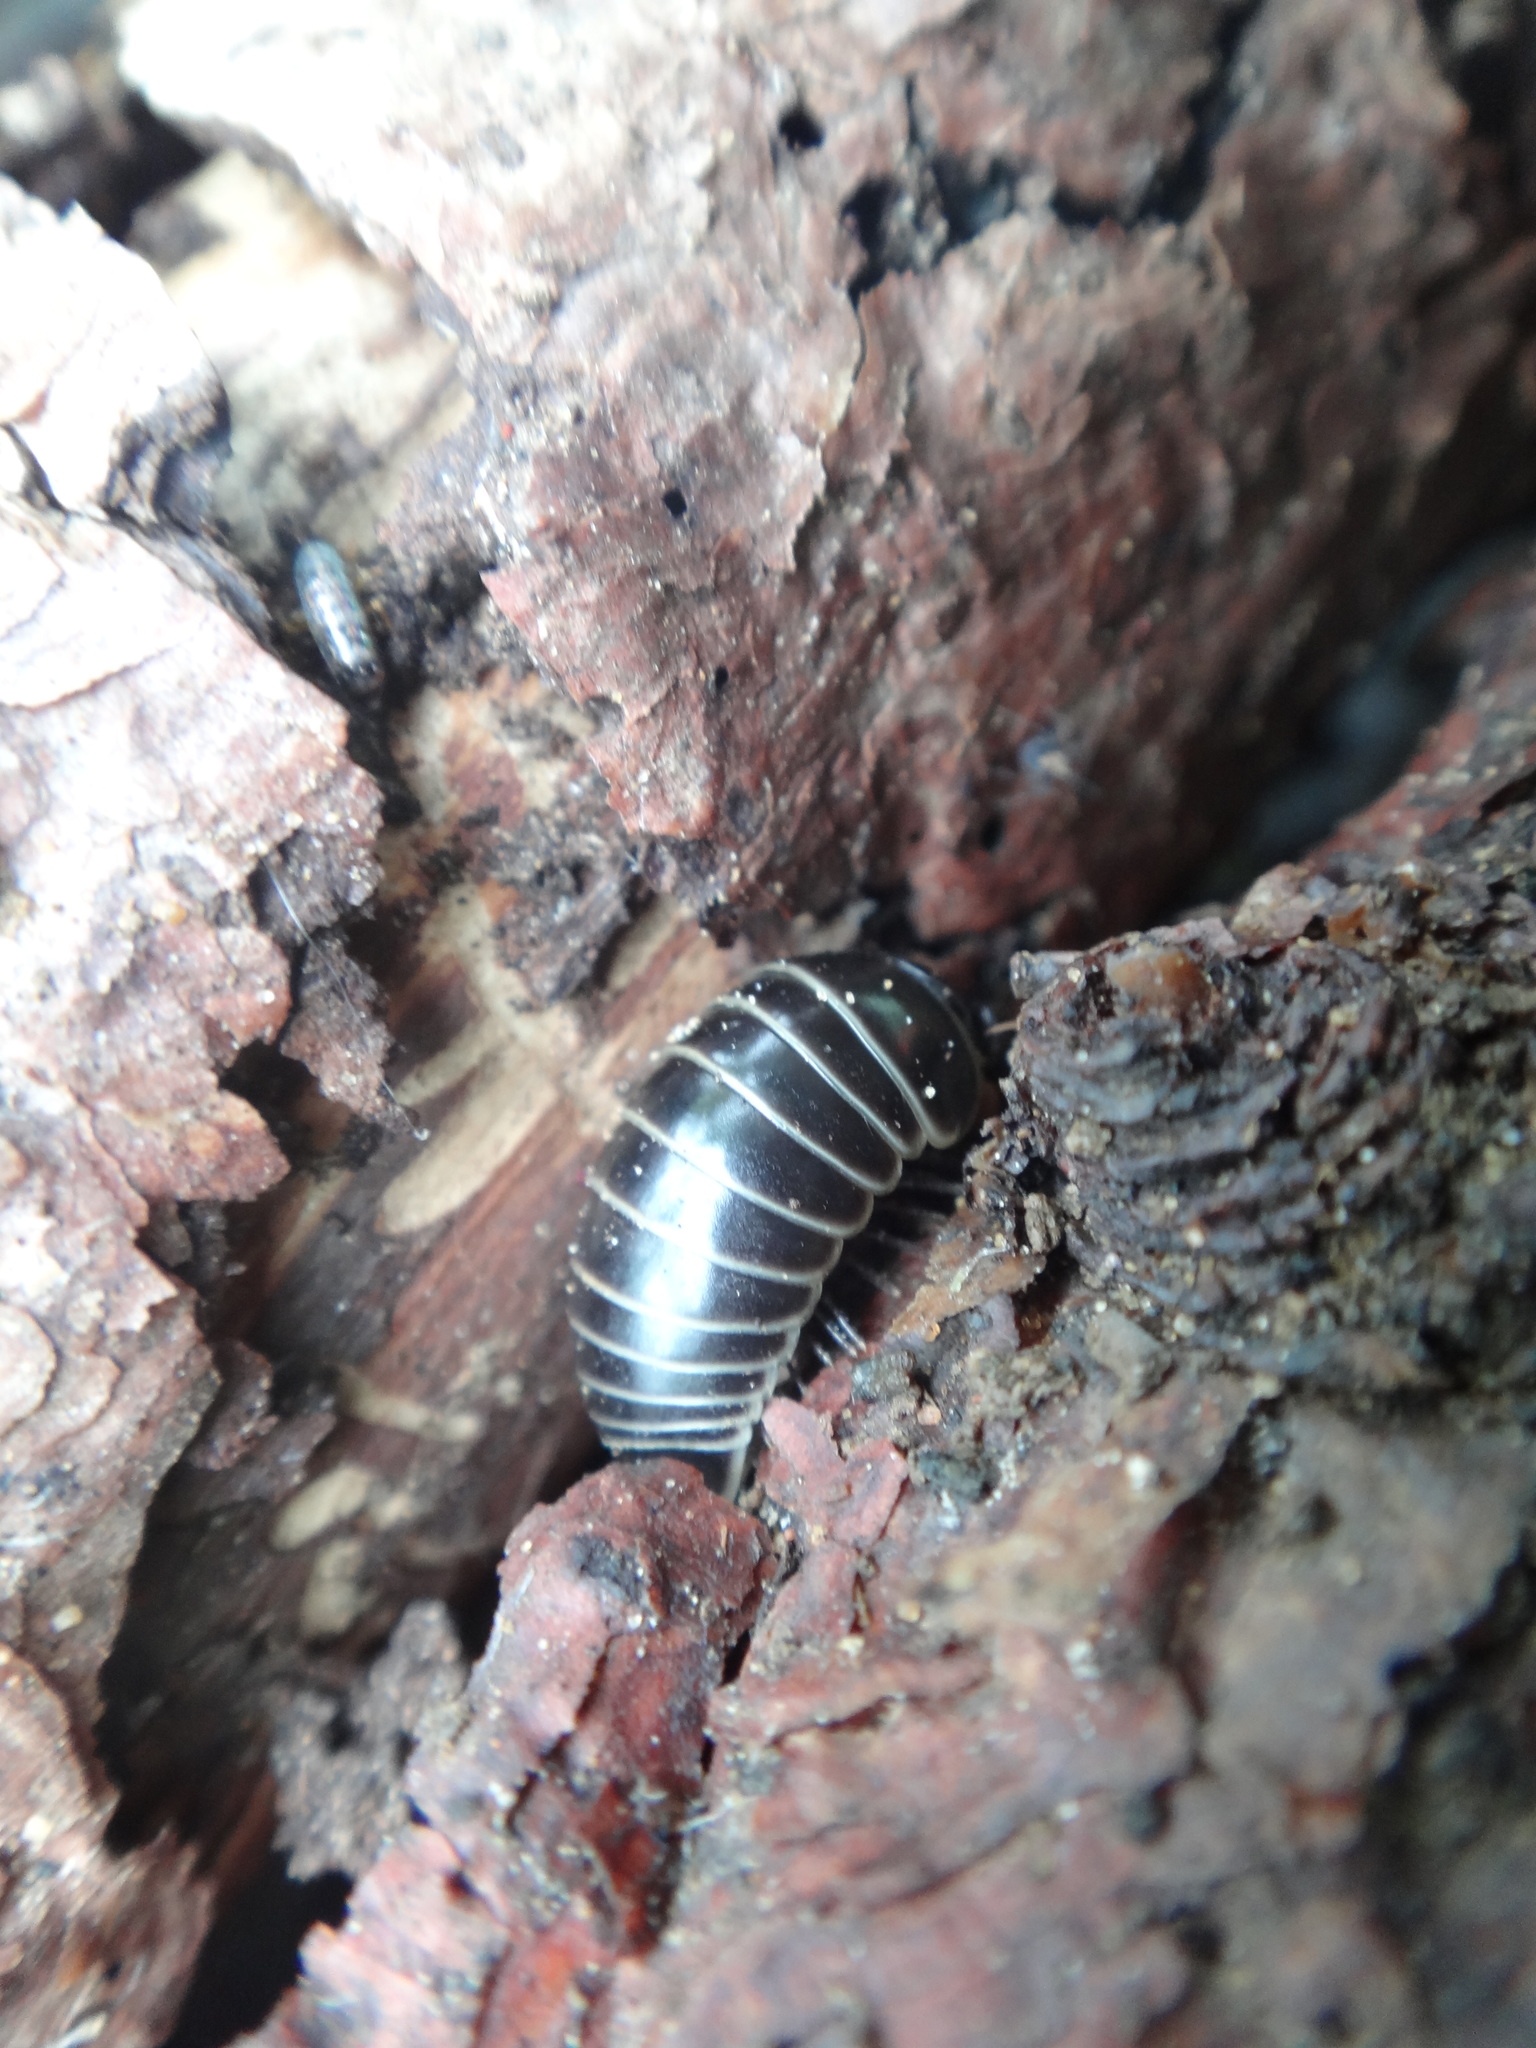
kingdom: Animalia
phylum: Arthropoda
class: Diplopoda
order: Glomerida
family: Glomeridae
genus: Glomeris
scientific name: Glomeris marginata
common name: Bordered pill millipede
